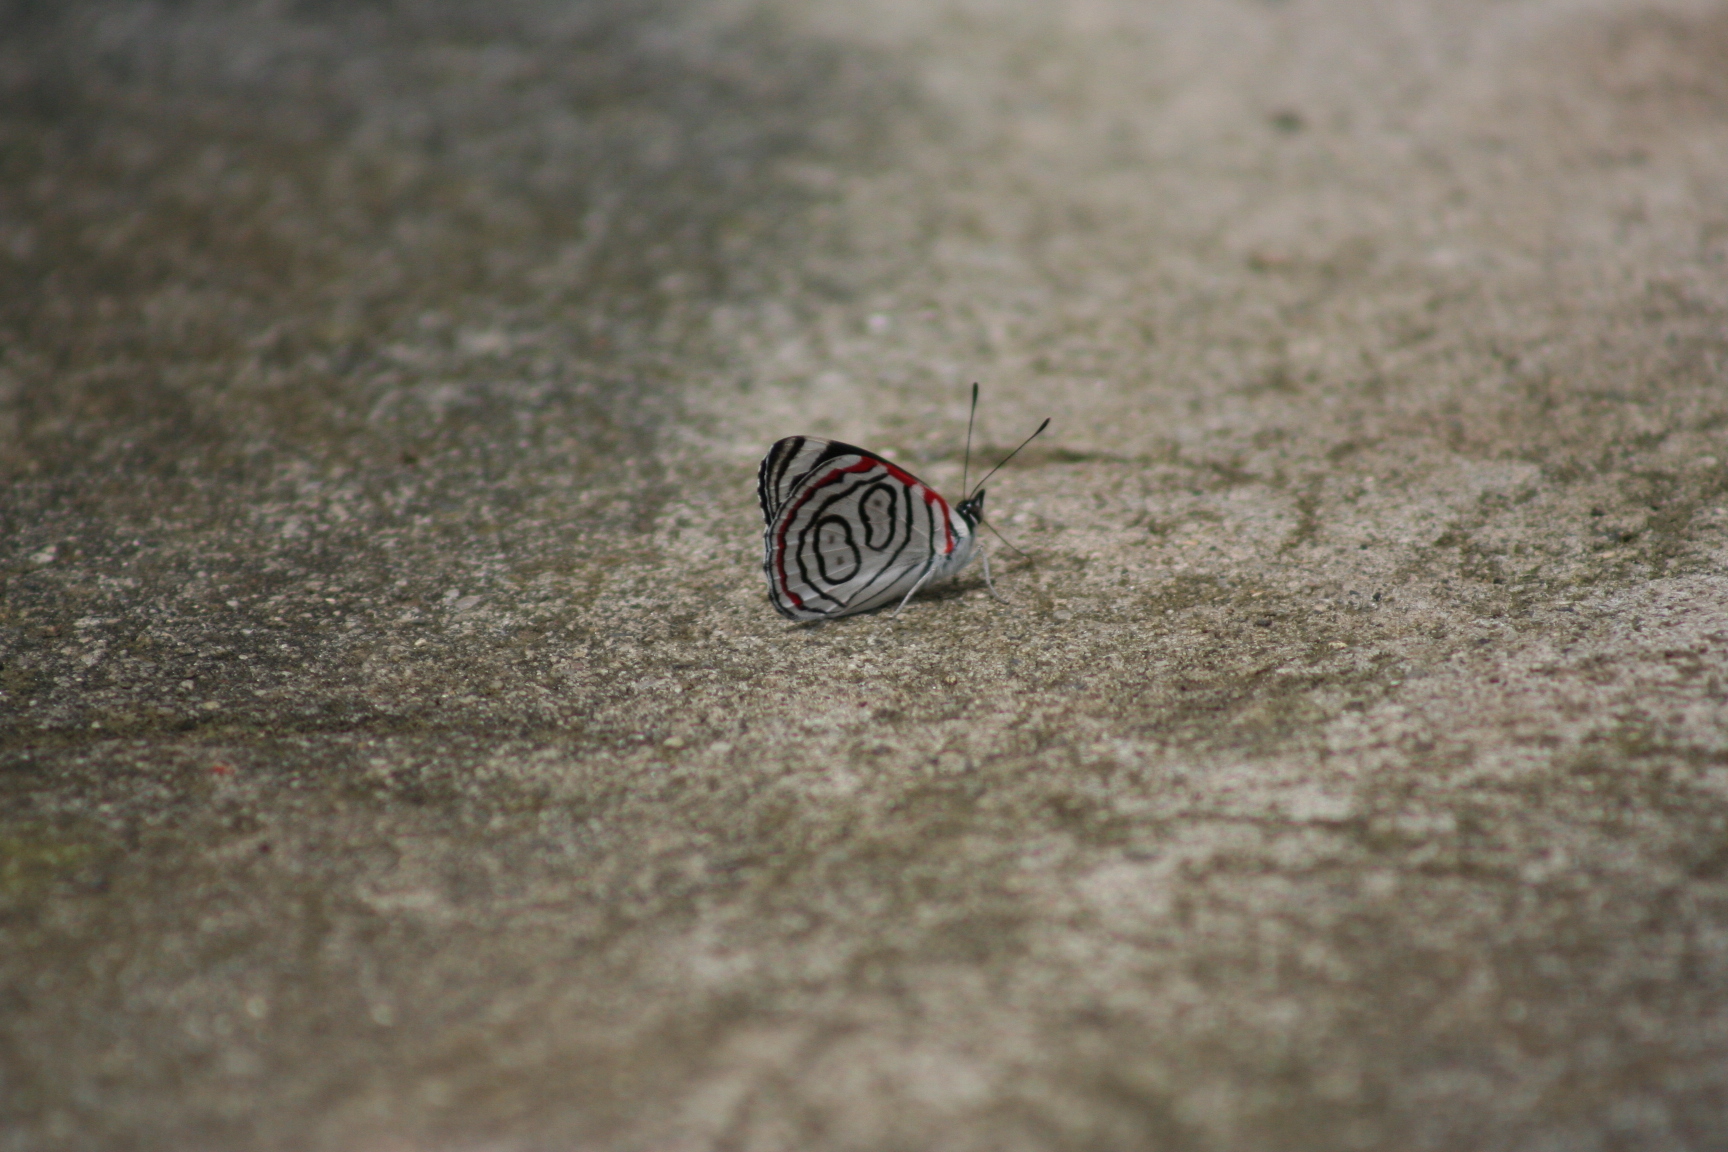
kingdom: Animalia
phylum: Arthropoda
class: Insecta
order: Lepidoptera
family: Nymphalidae
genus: Diaethria
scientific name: Diaethria astala
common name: Navy eighty-eight
